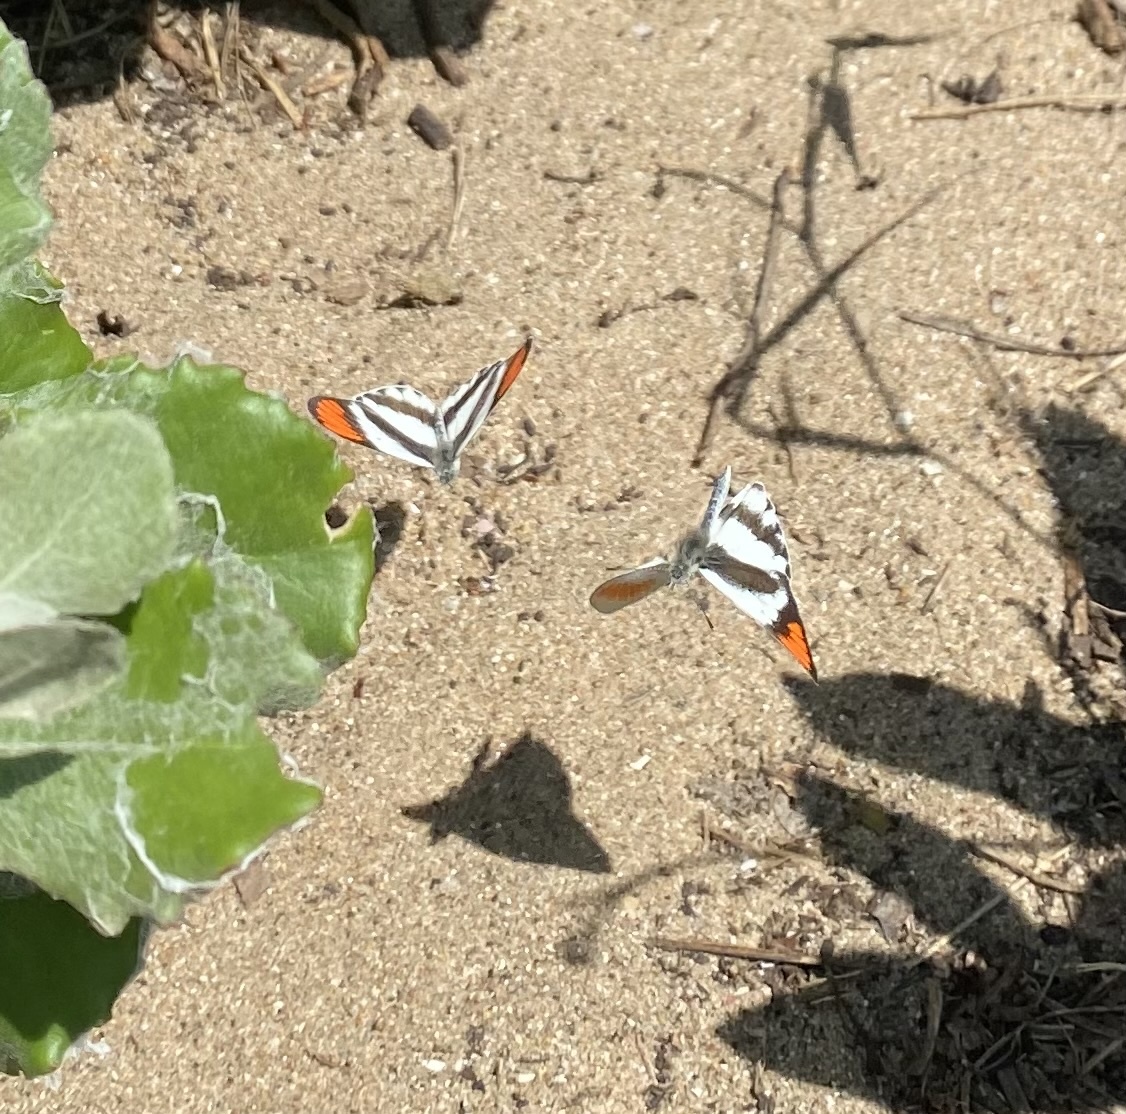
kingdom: Animalia
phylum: Arthropoda
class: Insecta
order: Lepidoptera
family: Pieridae
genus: Colotis
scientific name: Colotis euippe
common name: Round-winged orange tip
